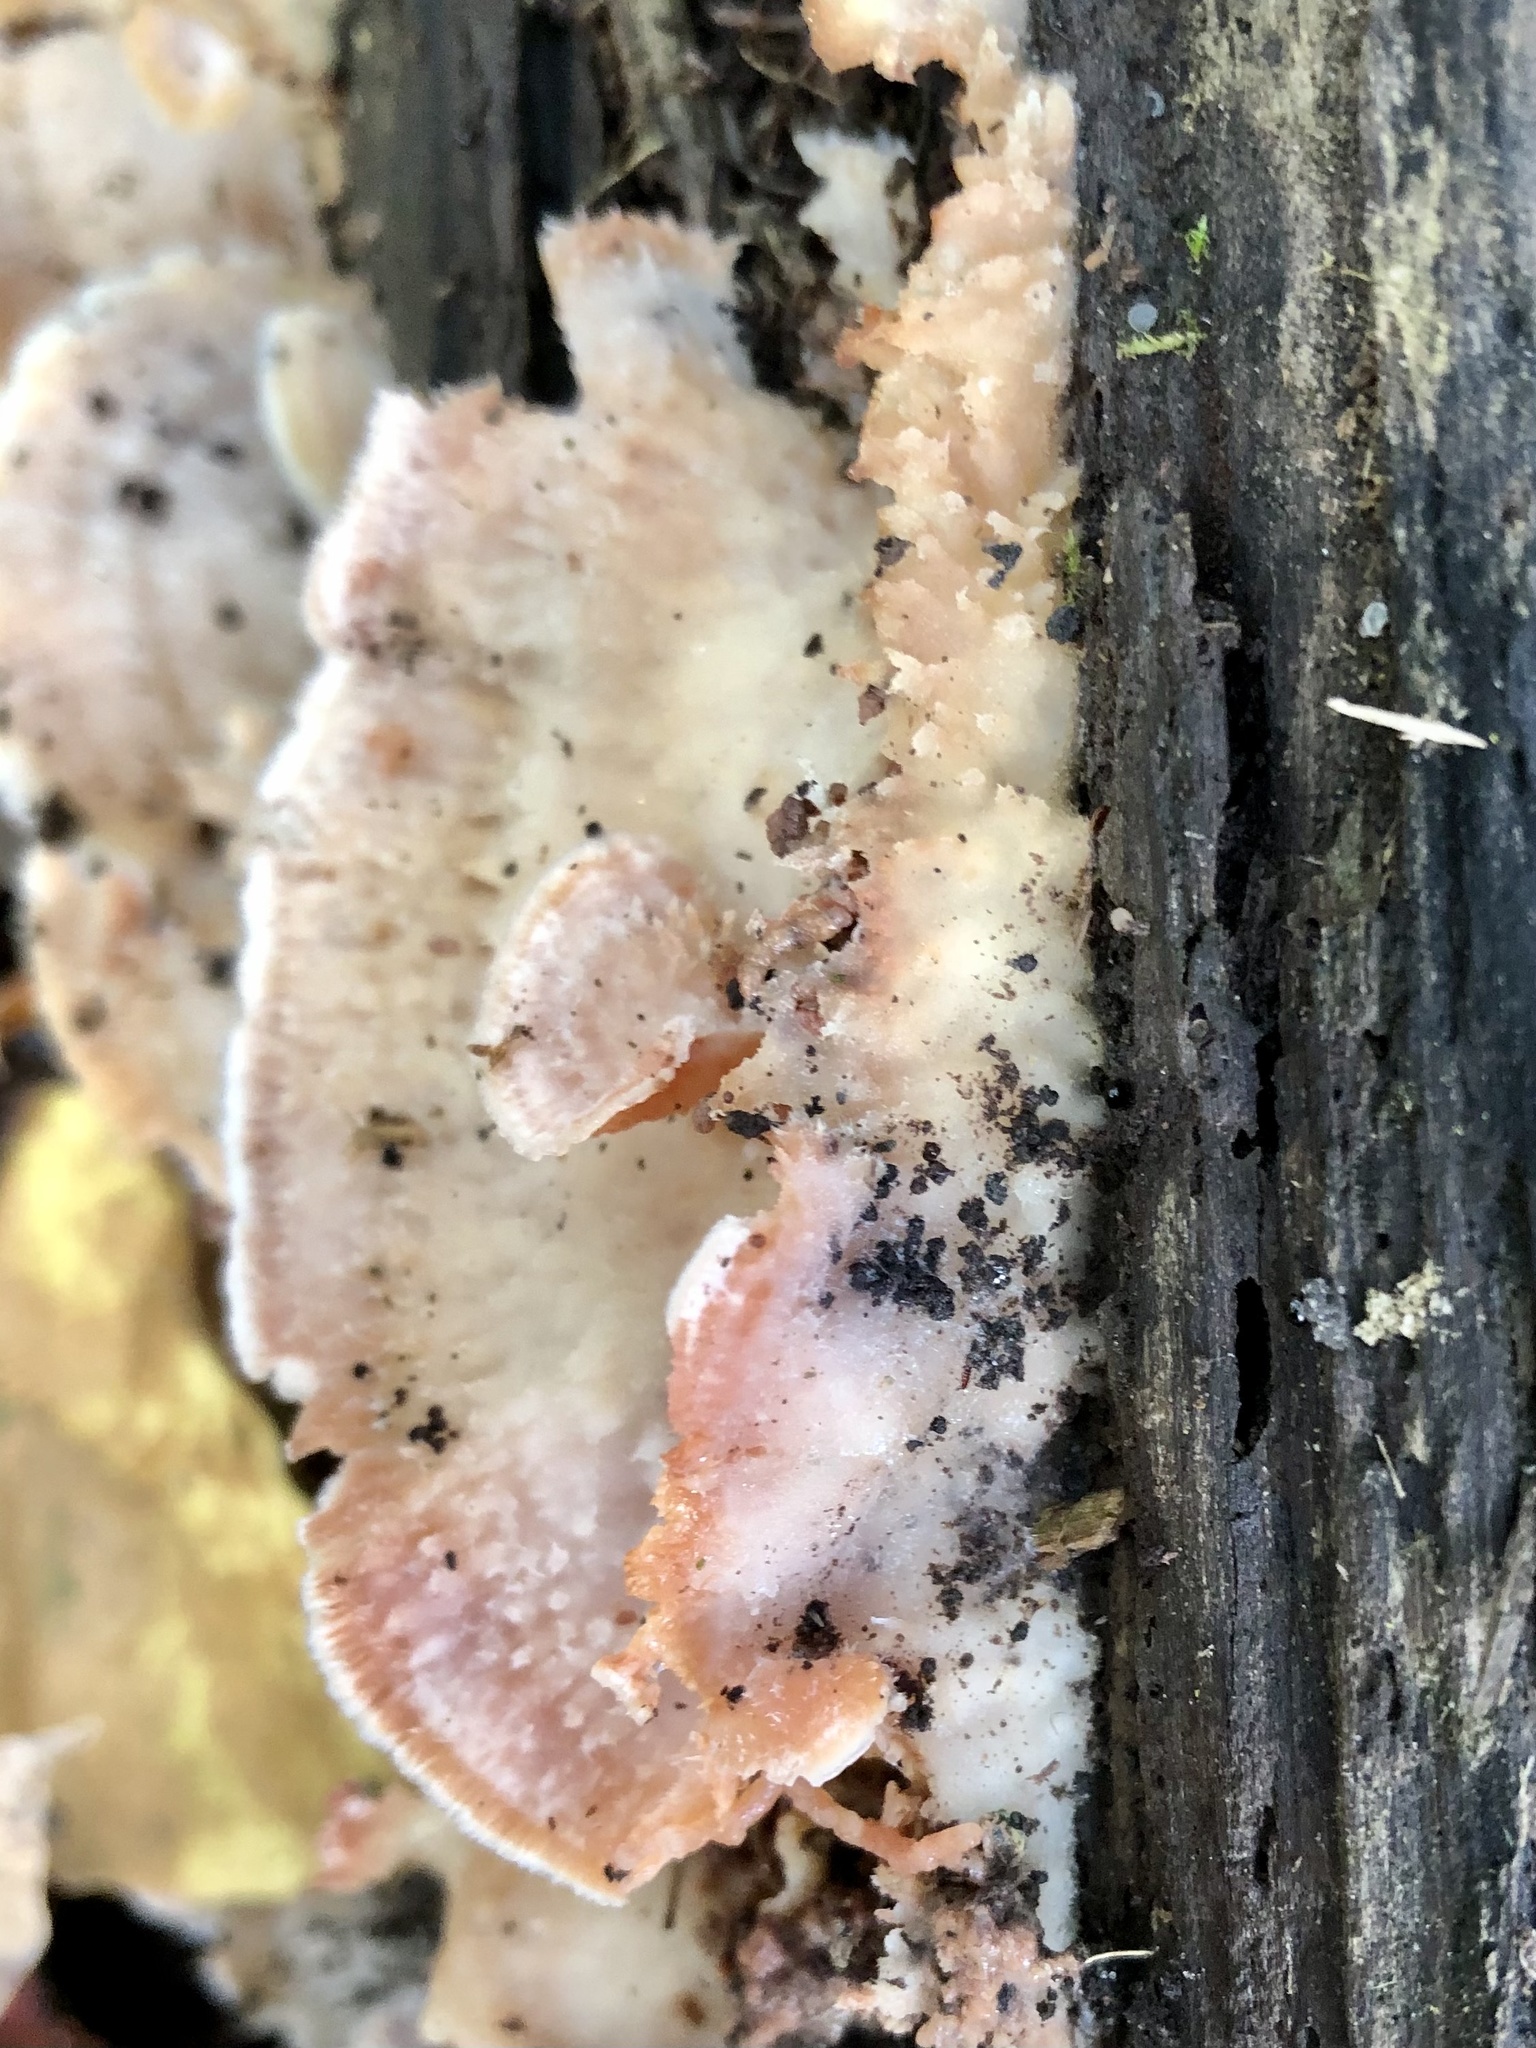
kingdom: Fungi
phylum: Basidiomycota
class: Agaricomycetes
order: Polyporales
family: Meruliaceae
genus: Phlebia
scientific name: Phlebia tremellosa
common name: Jelly rot
